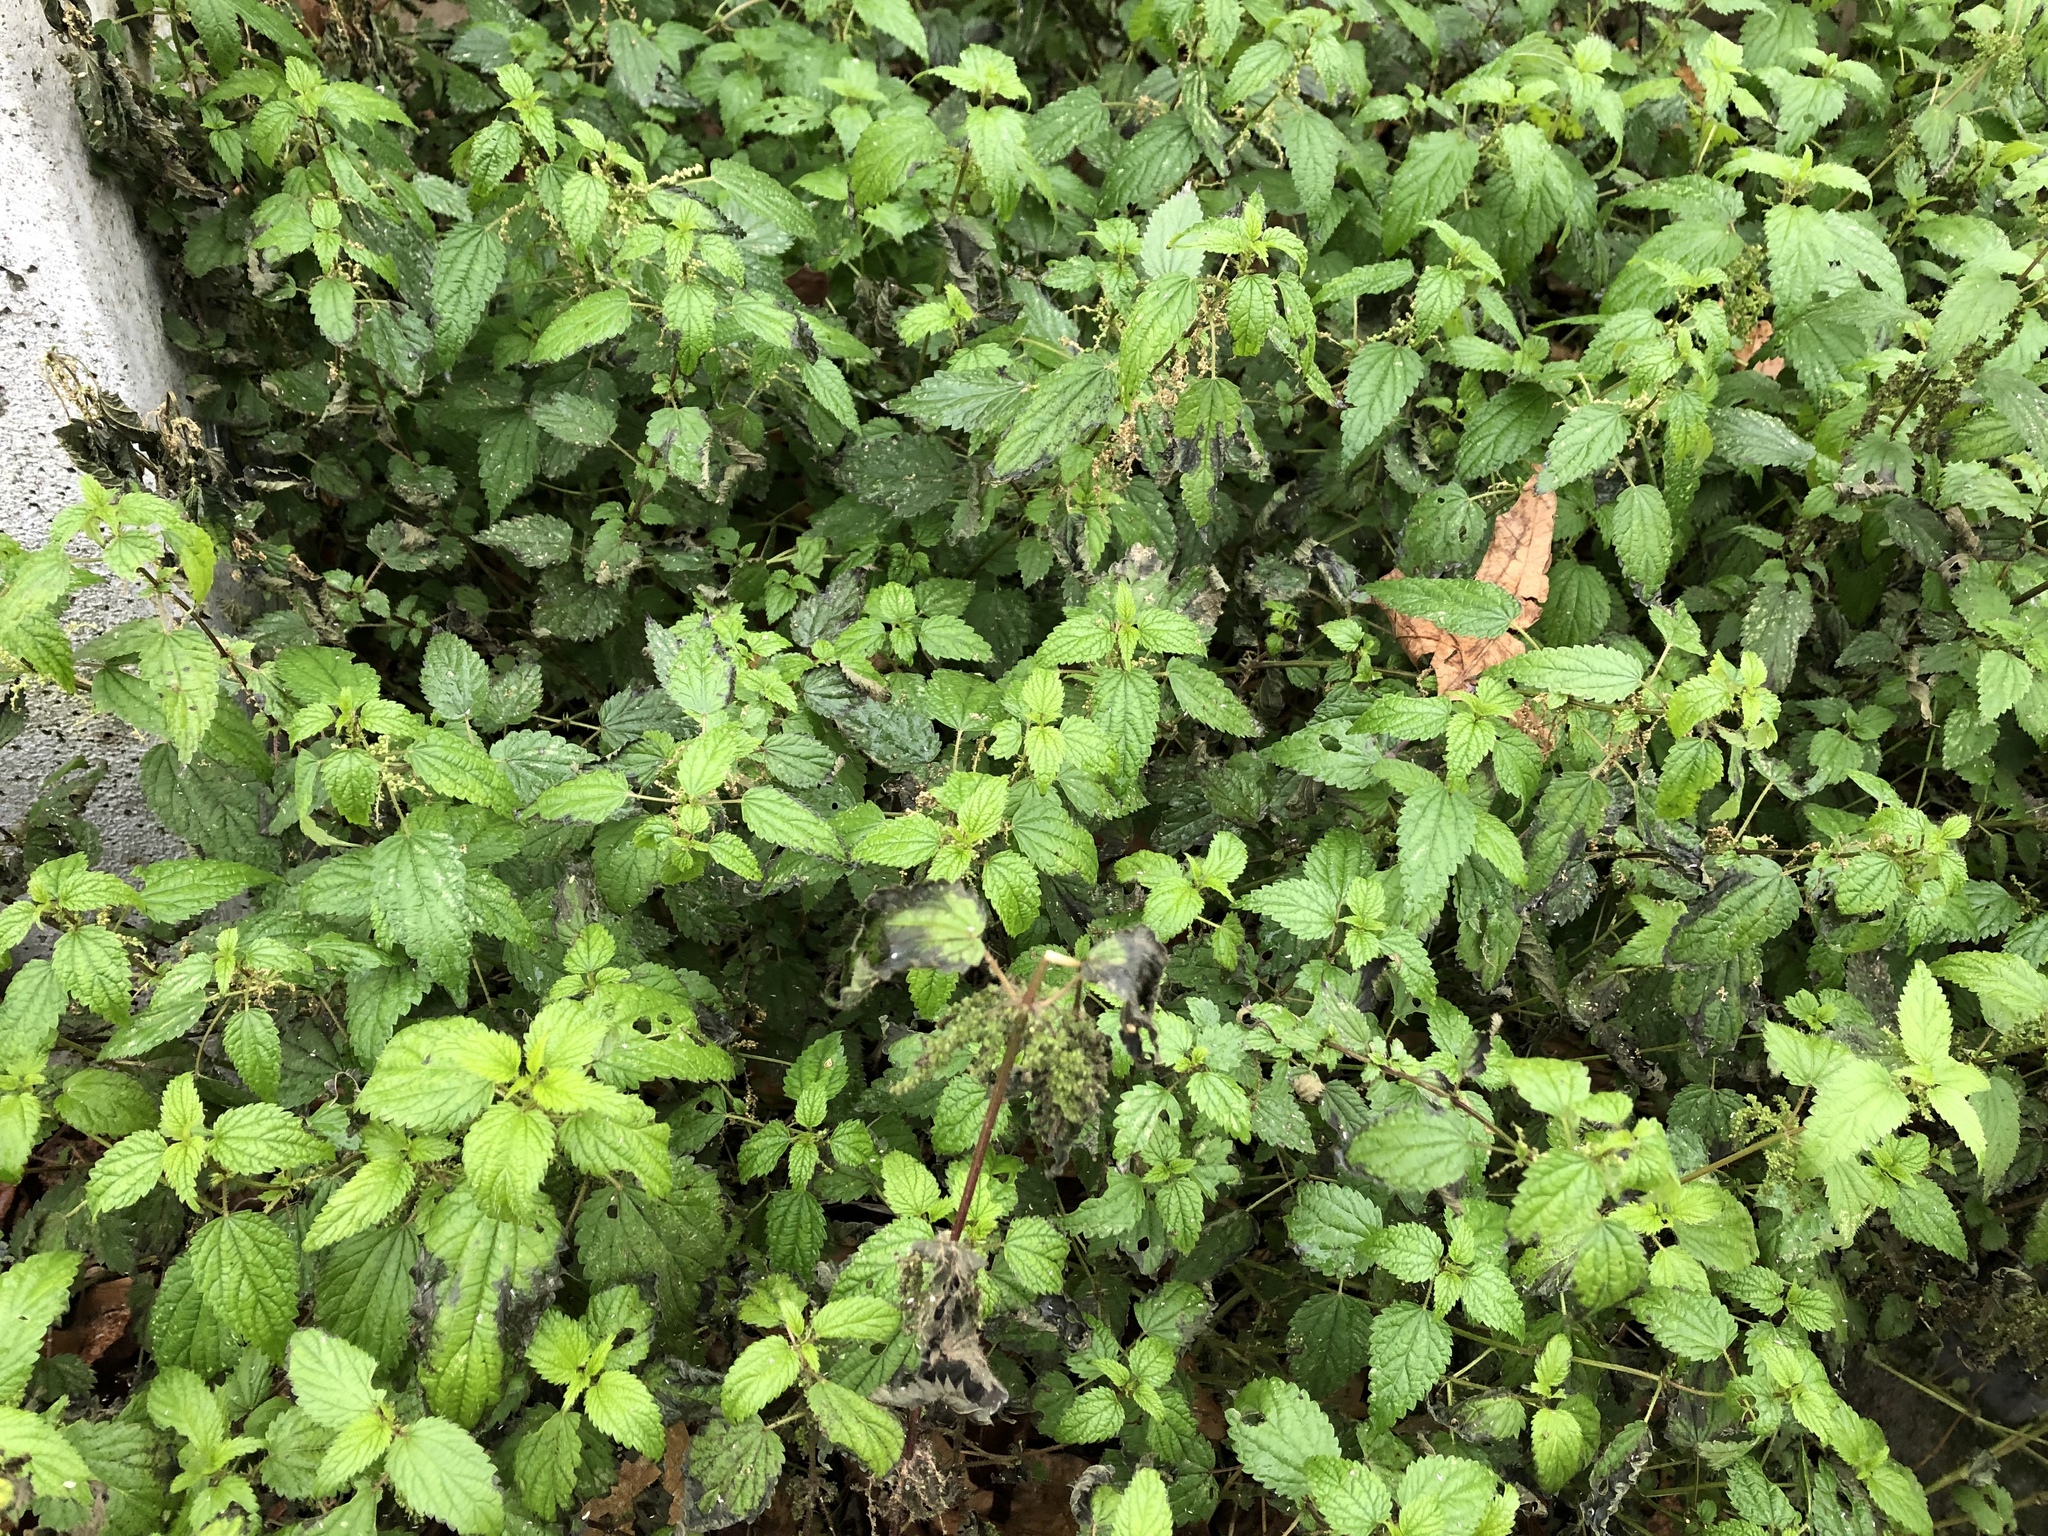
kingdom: Plantae
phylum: Tracheophyta
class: Magnoliopsida
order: Rosales
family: Urticaceae
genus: Urtica
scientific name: Urtica dioica
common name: Common nettle
